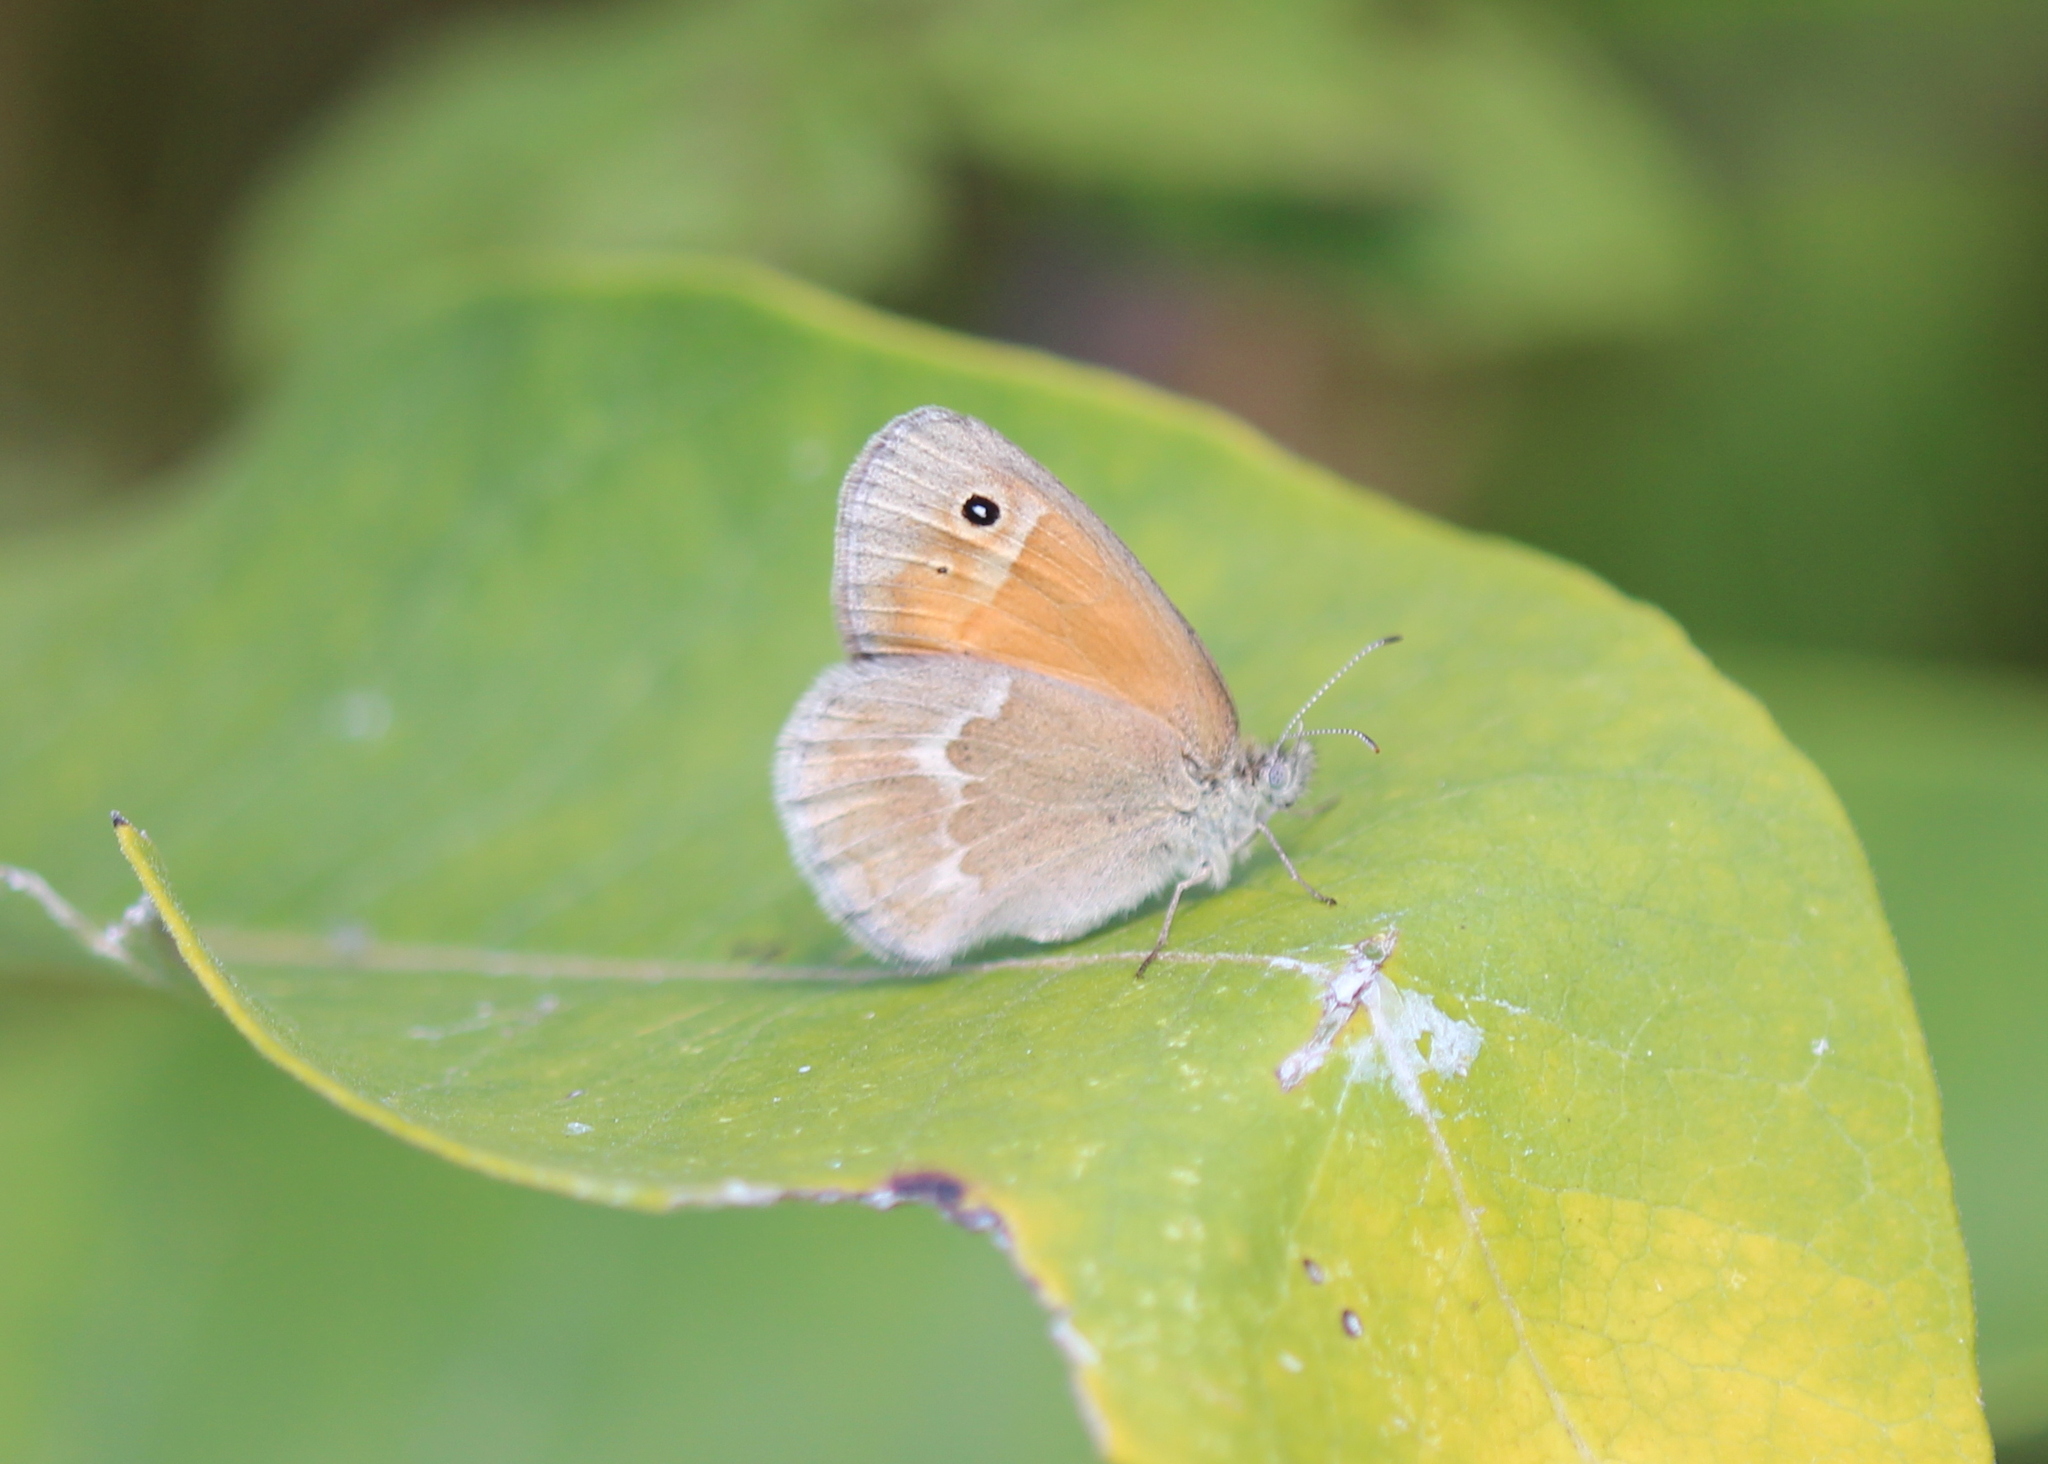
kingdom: Animalia
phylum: Arthropoda
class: Insecta
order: Lepidoptera
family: Nymphalidae
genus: Coenonympha
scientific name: Coenonympha california
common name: Common ringlet
